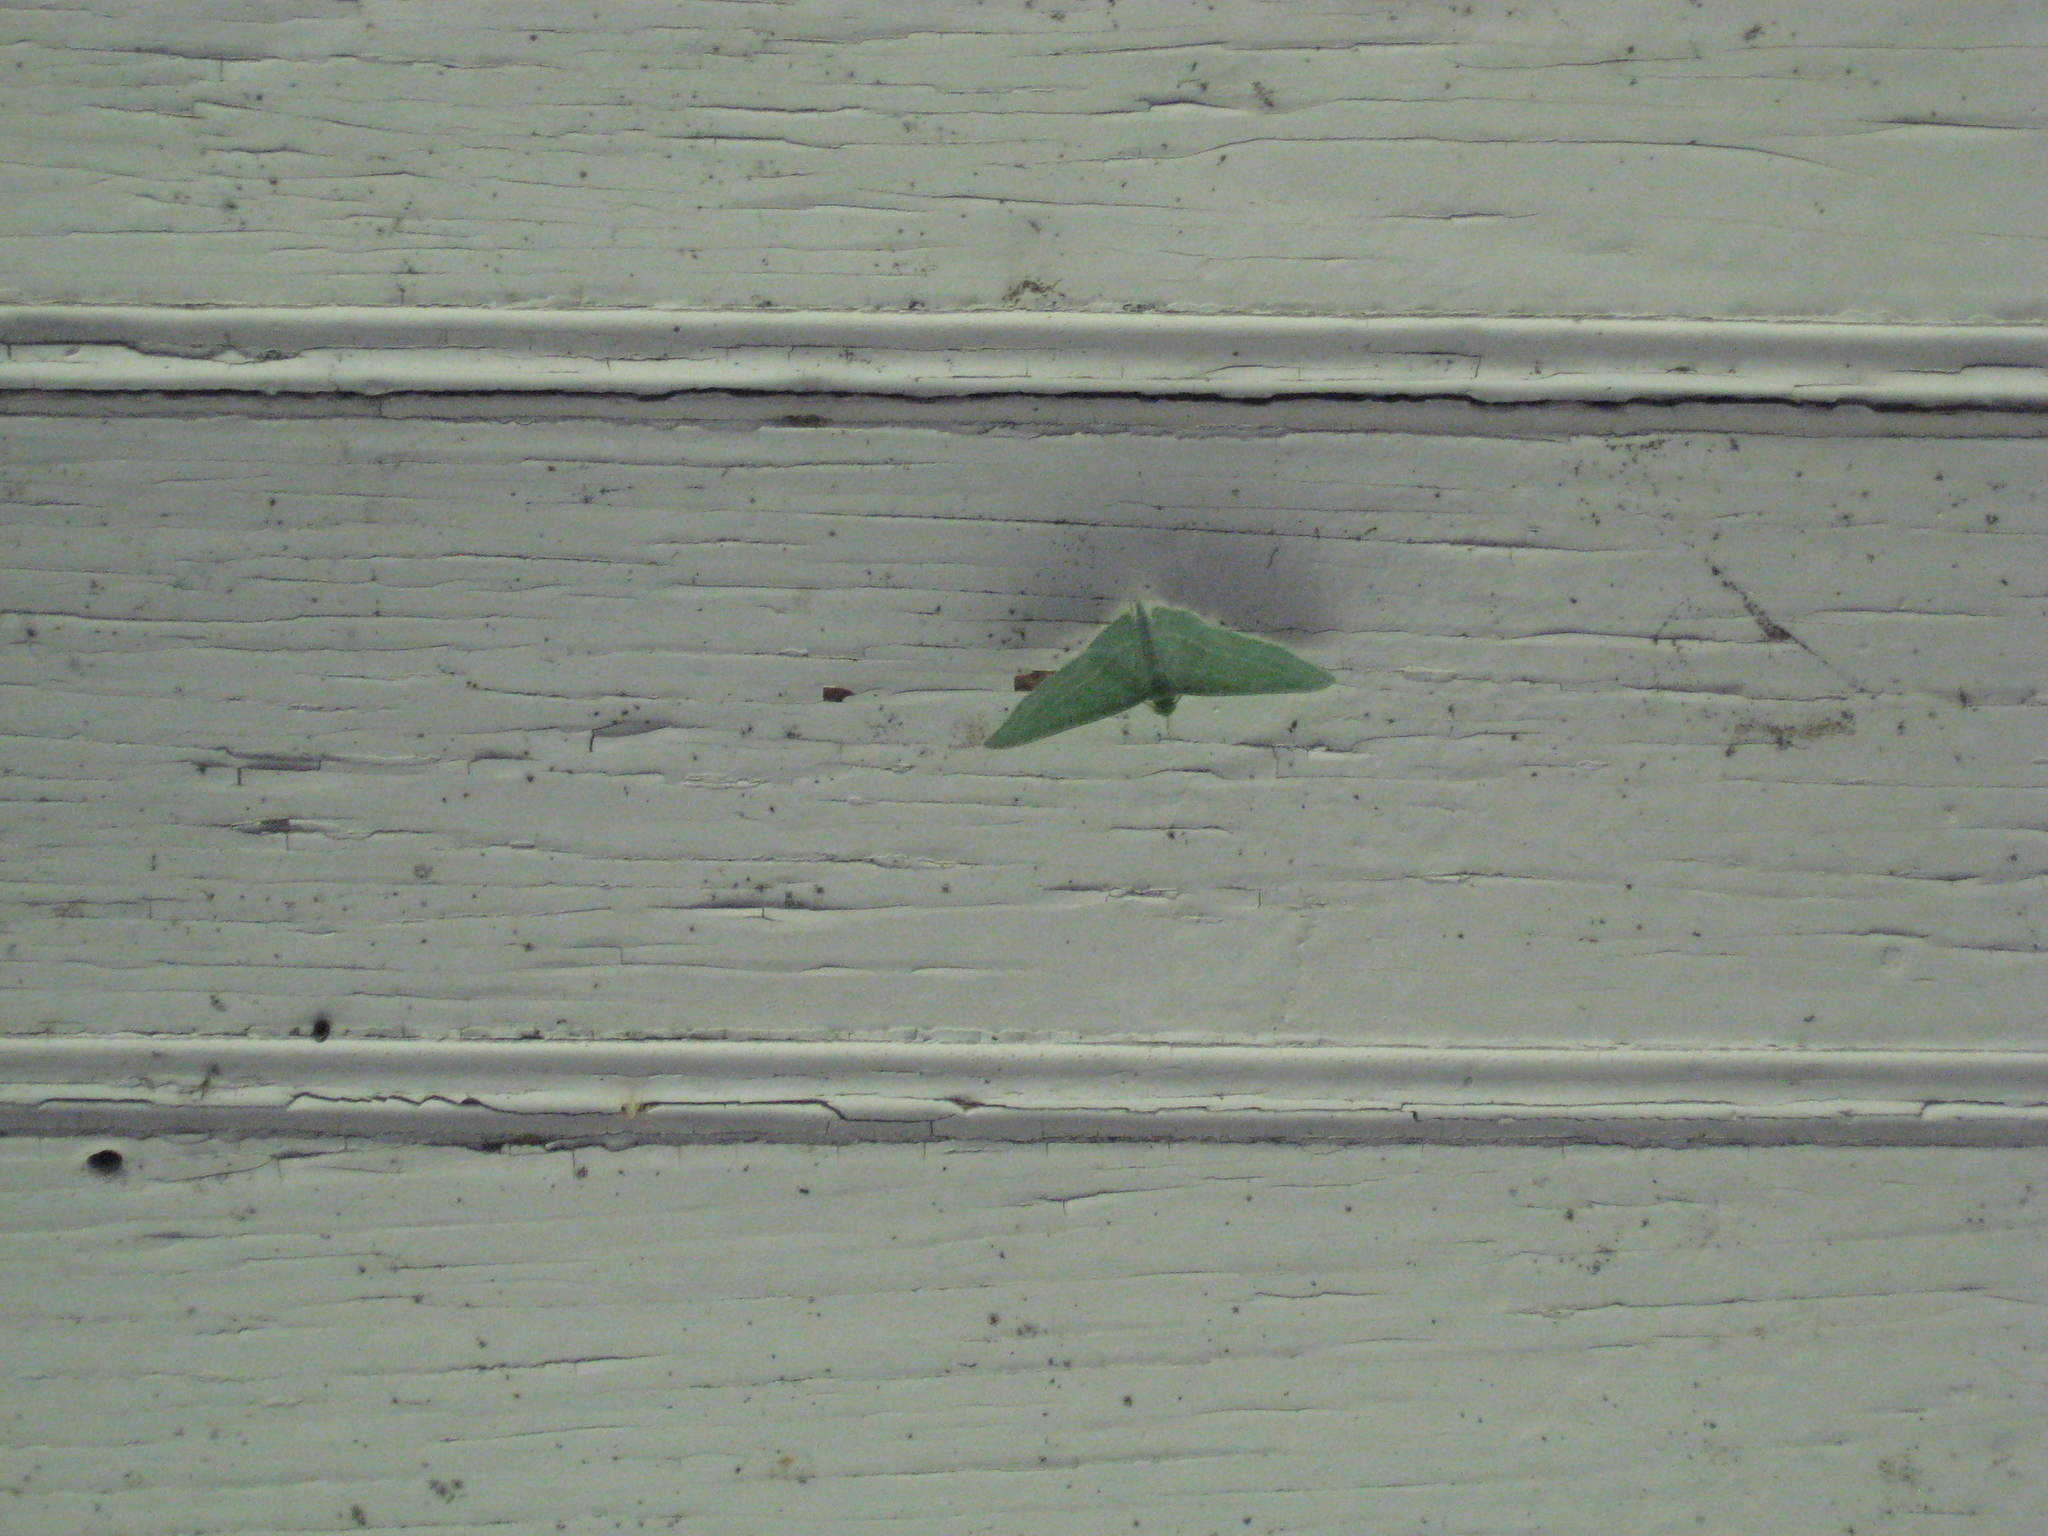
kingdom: Animalia
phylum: Arthropoda
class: Insecta
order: Lepidoptera
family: Geometridae
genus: Dyspteris
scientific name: Dyspteris abortivaria
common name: Bad-wing
